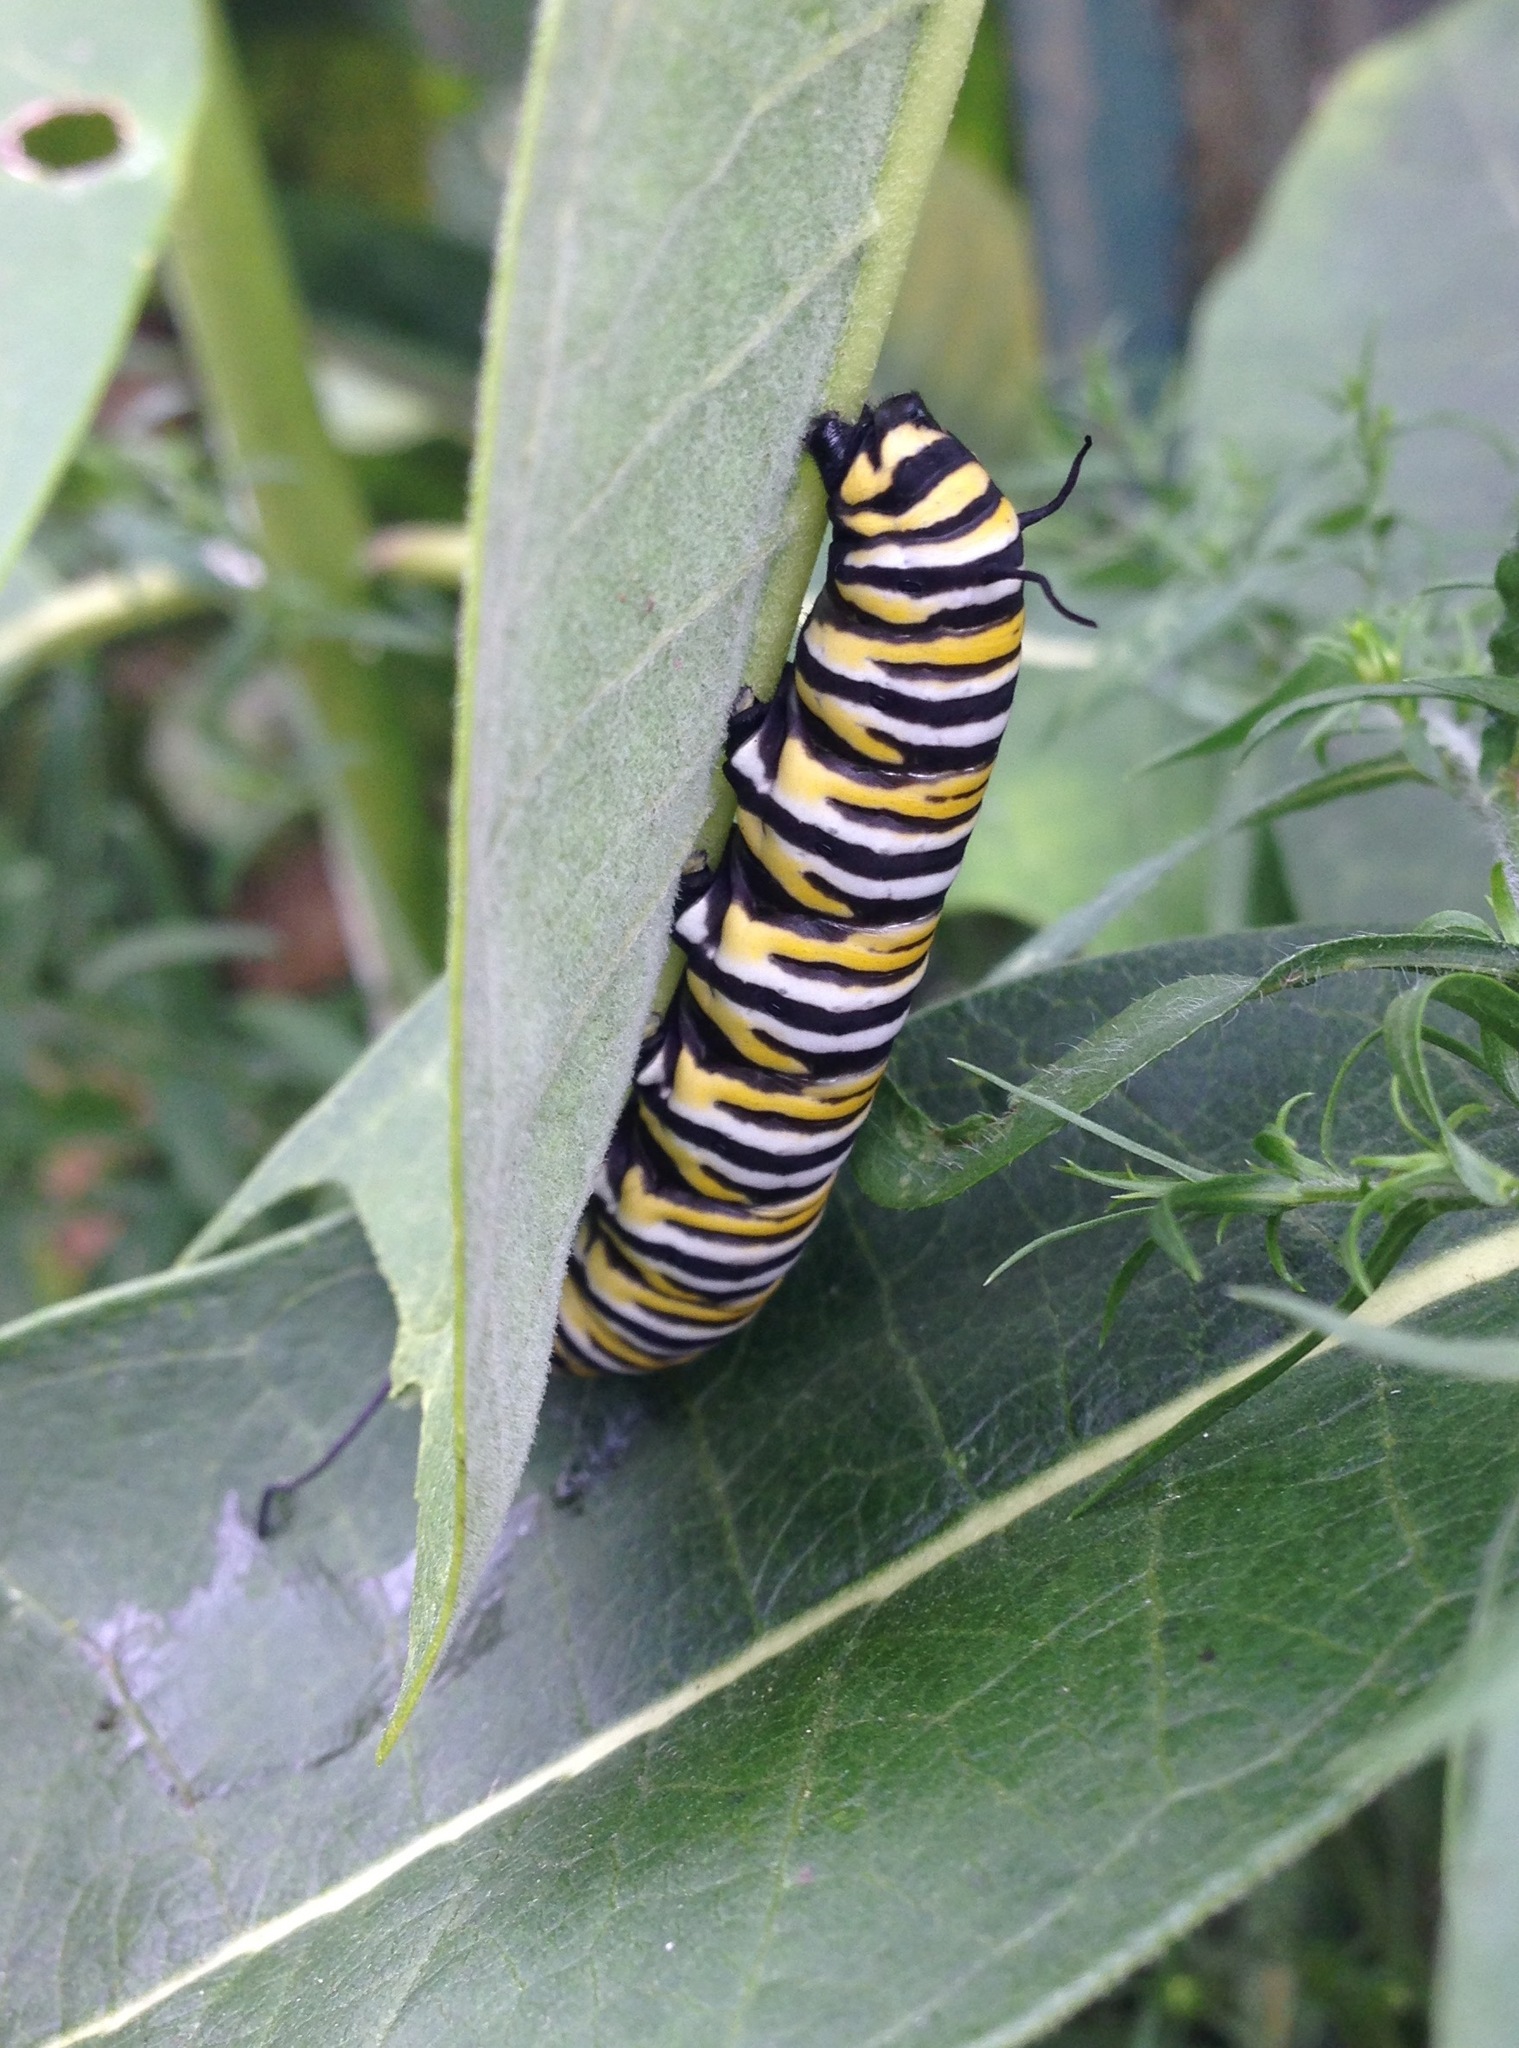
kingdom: Animalia
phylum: Arthropoda
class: Insecta
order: Lepidoptera
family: Nymphalidae
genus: Danaus
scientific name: Danaus plexippus
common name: Monarch
